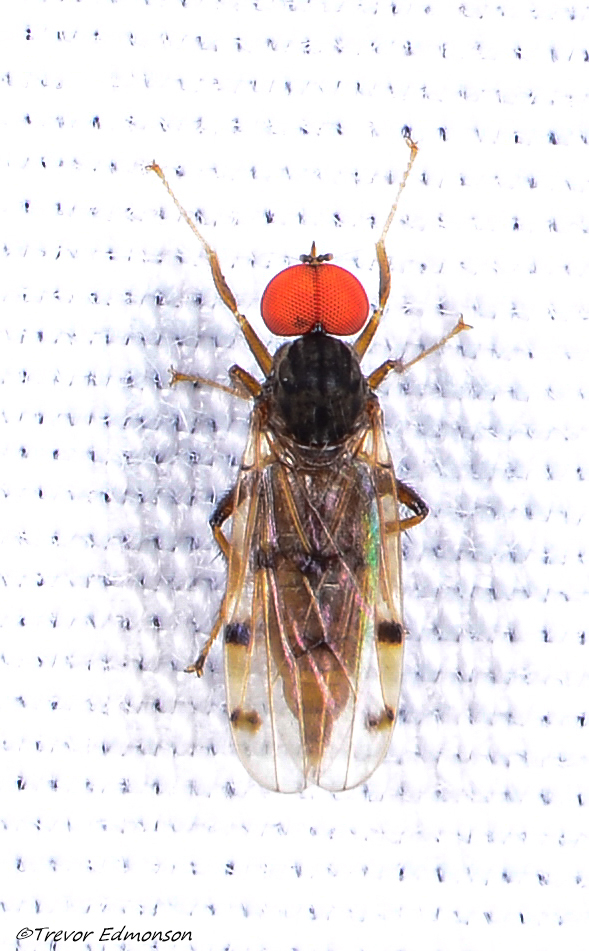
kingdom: Animalia
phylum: Arthropoda
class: Insecta
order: Diptera
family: Hybotidae
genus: Syneches
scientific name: Syneches simplex
